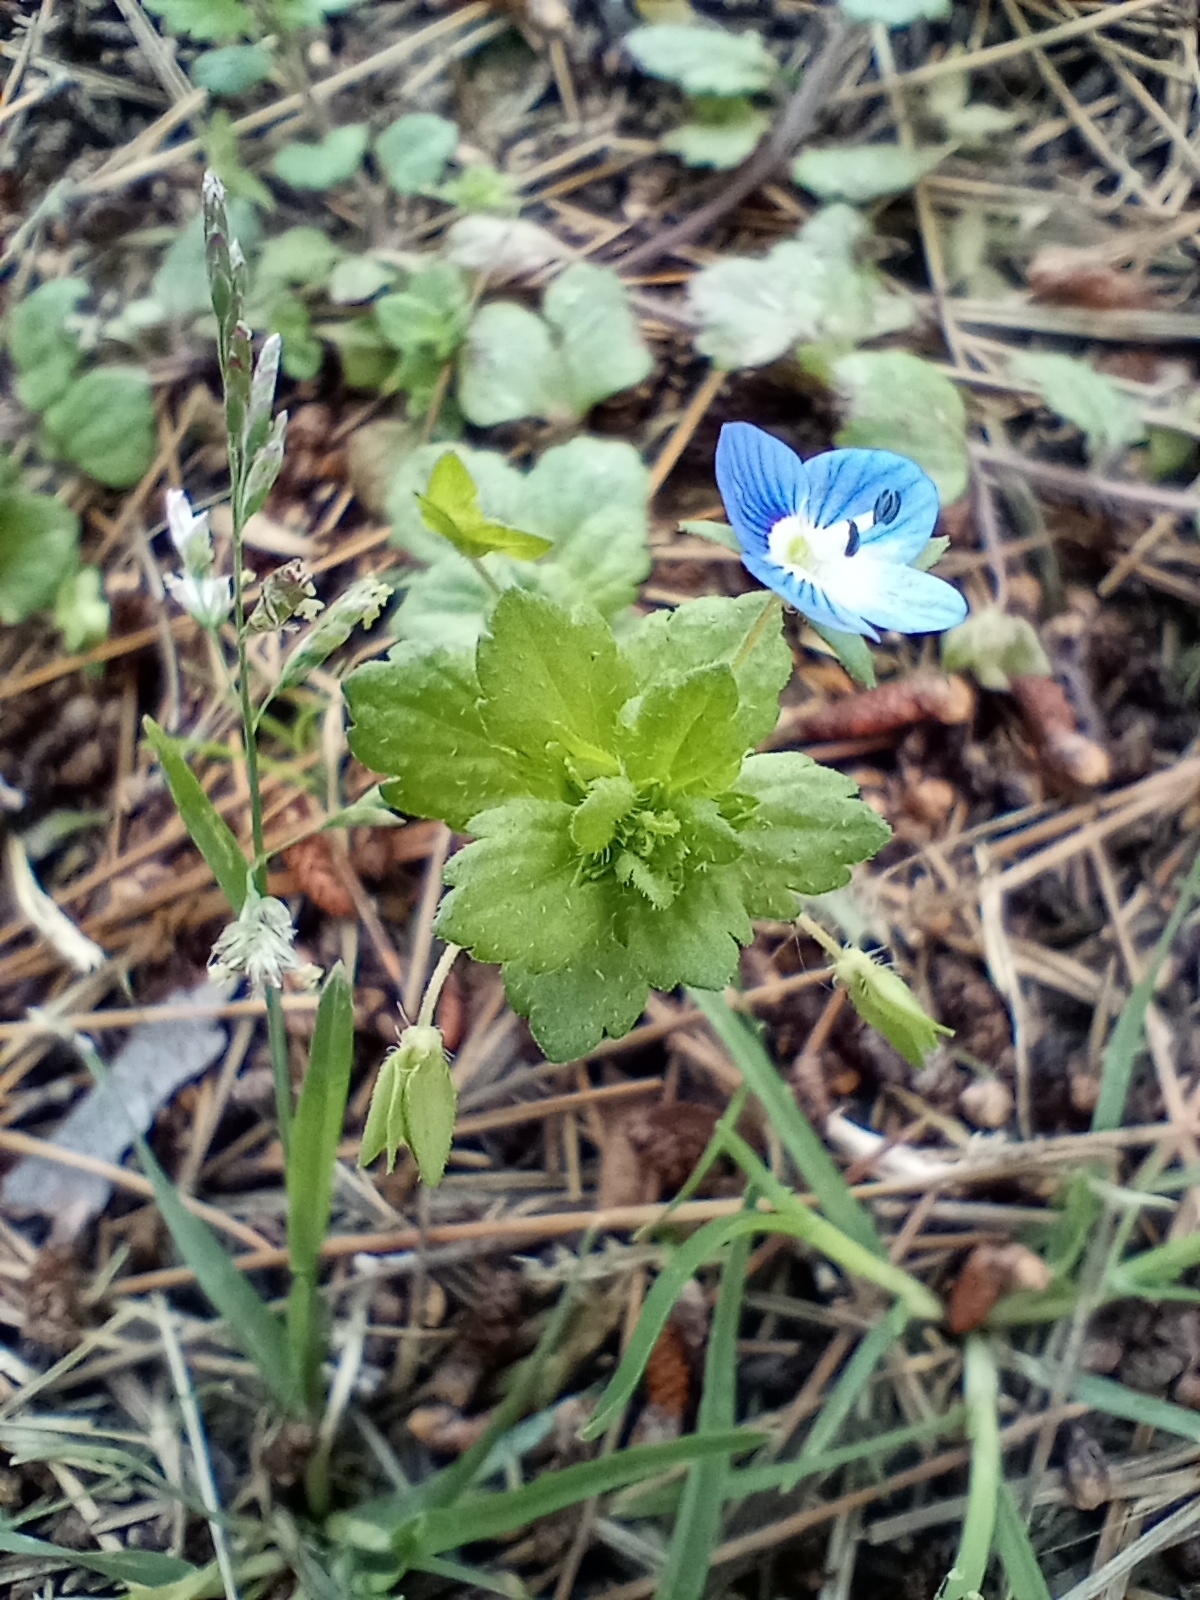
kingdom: Plantae
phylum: Tracheophyta
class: Magnoliopsida
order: Lamiales
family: Plantaginaceae
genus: Veronica
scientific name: Veronica persica
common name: Common field-speedwell
